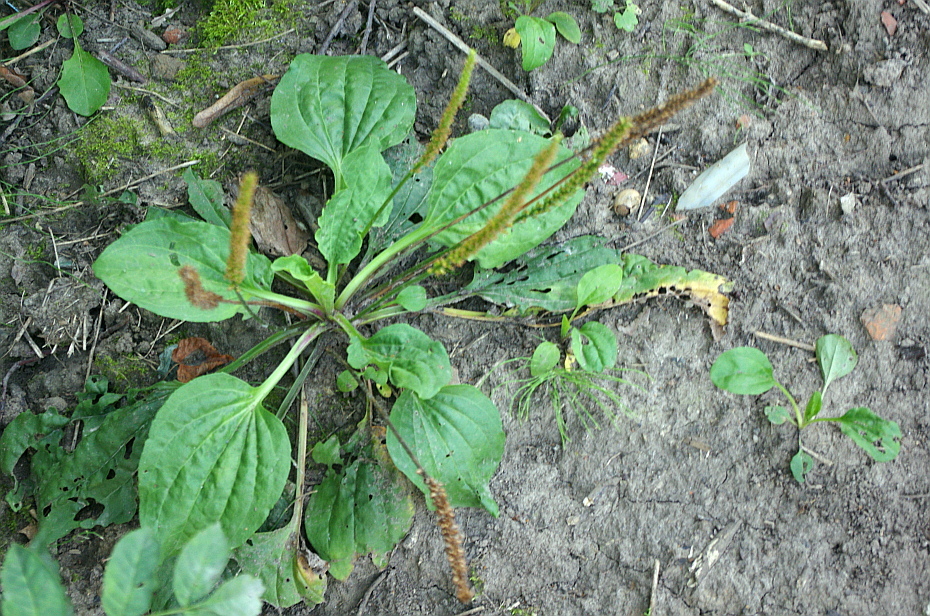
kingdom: Plantae
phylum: Tracheophyta
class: Magnoliopsida
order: Lamiales
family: Plantaginaceae
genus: Plantago
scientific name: Plantago major
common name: Common plantain
